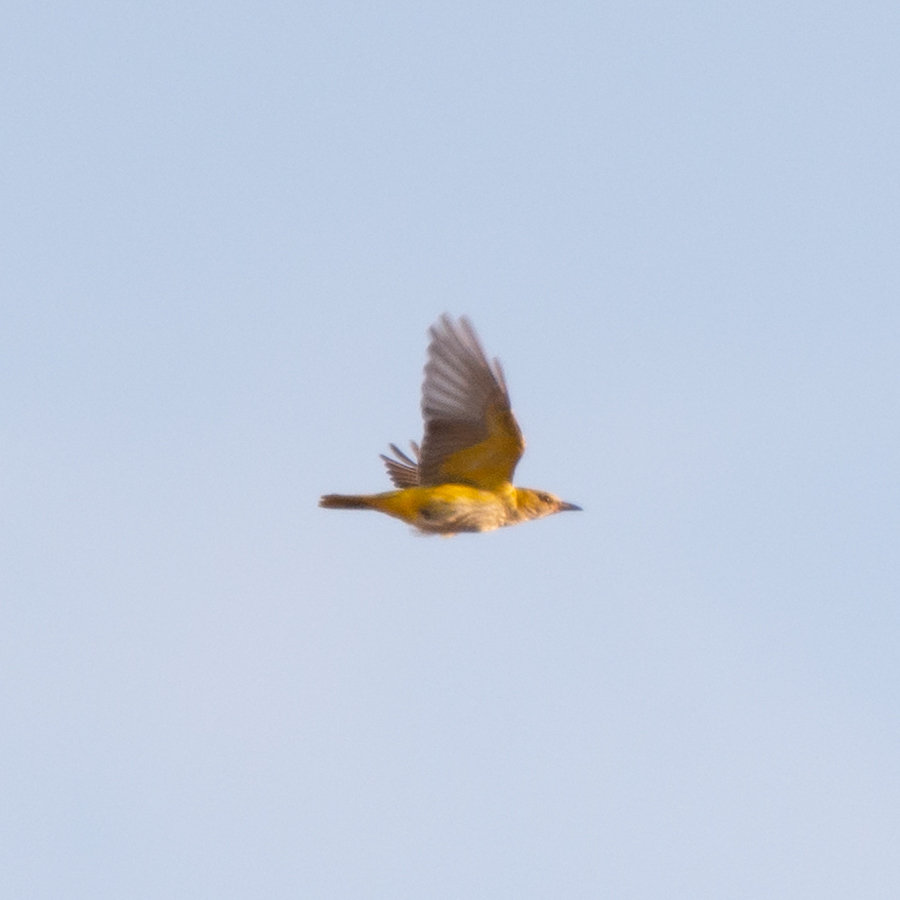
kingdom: Animalia
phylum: Chordata
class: Aves
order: Passeriformes
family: Oriolidae
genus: Oriolus
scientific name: Oriolus oriolus
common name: Eurasian golden oriole
